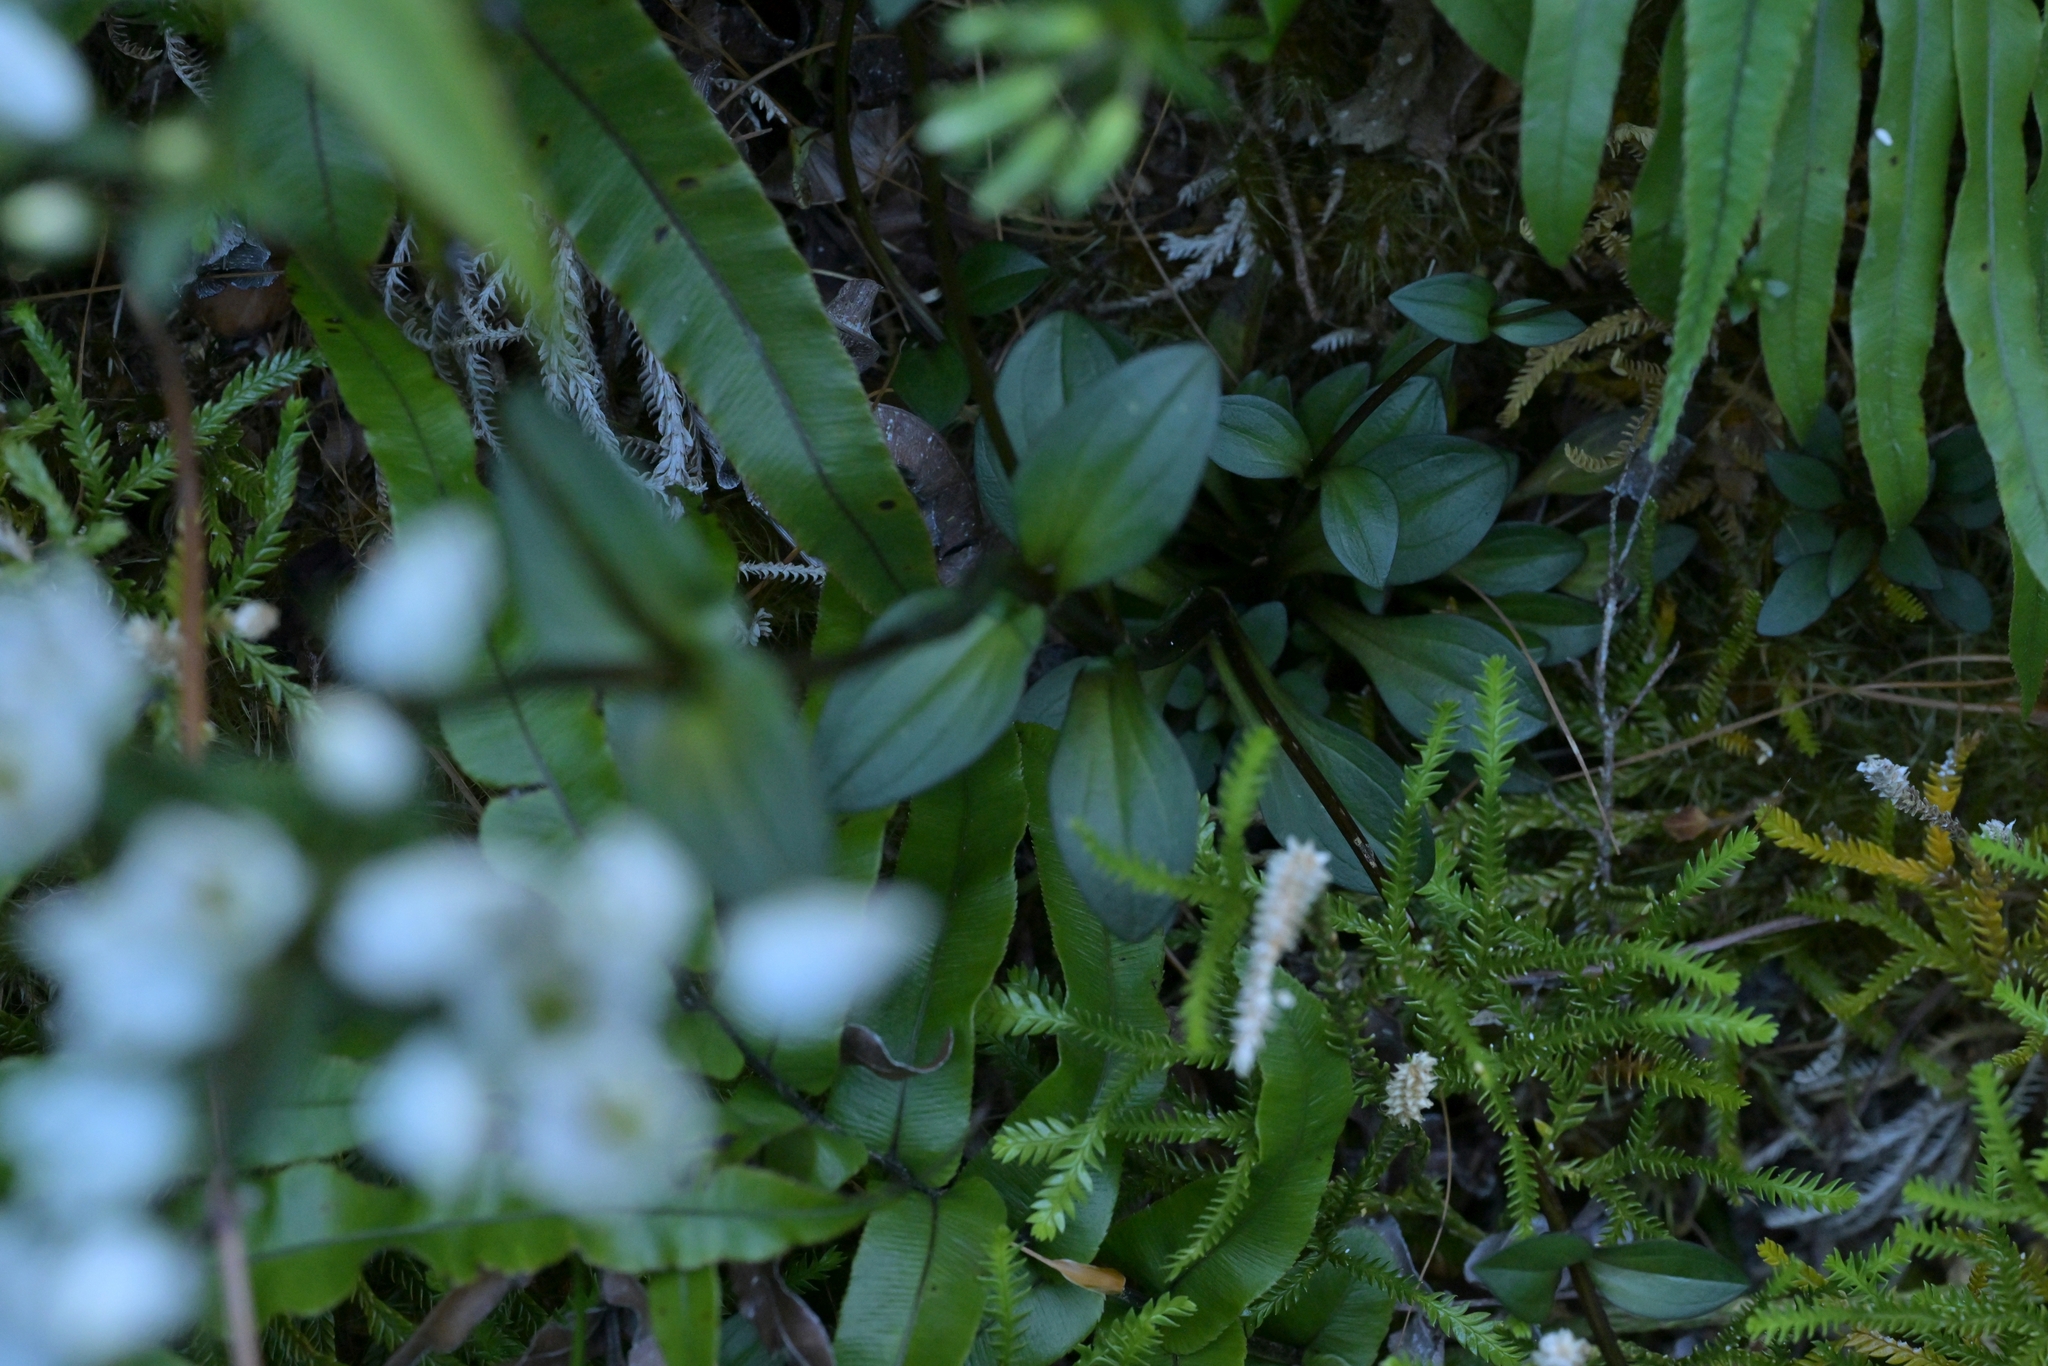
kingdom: Plantae
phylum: Tracheophyta
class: Magnoliopsida
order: Gentianales
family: Gentianaceae
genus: Gentianella
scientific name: Gentianella montana
